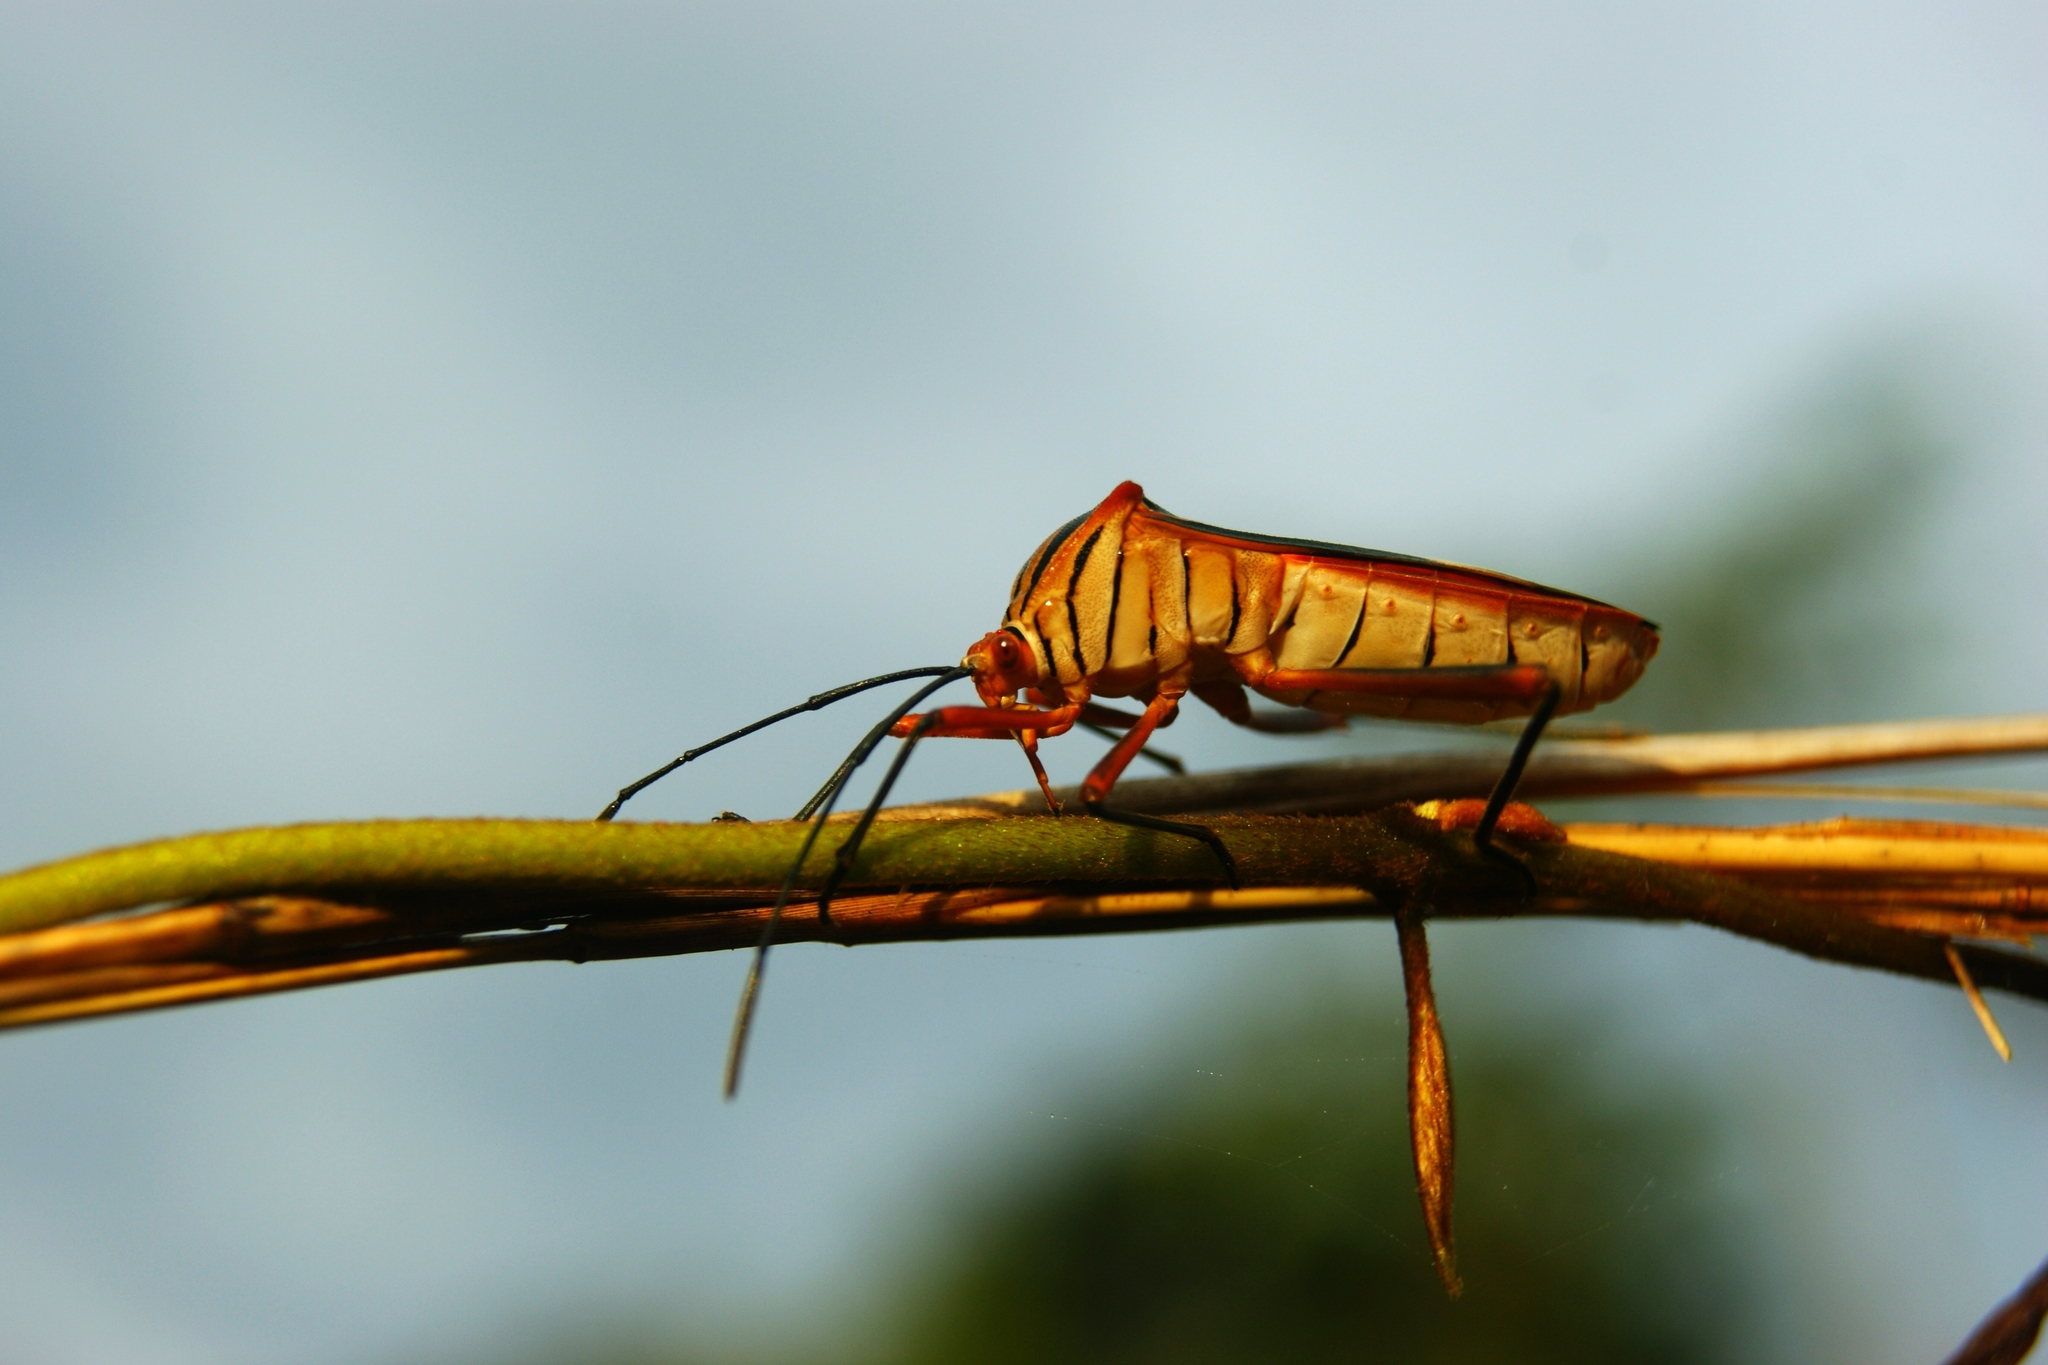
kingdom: Animalia
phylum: Arthropoda
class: Insecta
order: Hemiptera
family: Coreidae
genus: Machtima
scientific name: Machtima mexicana
